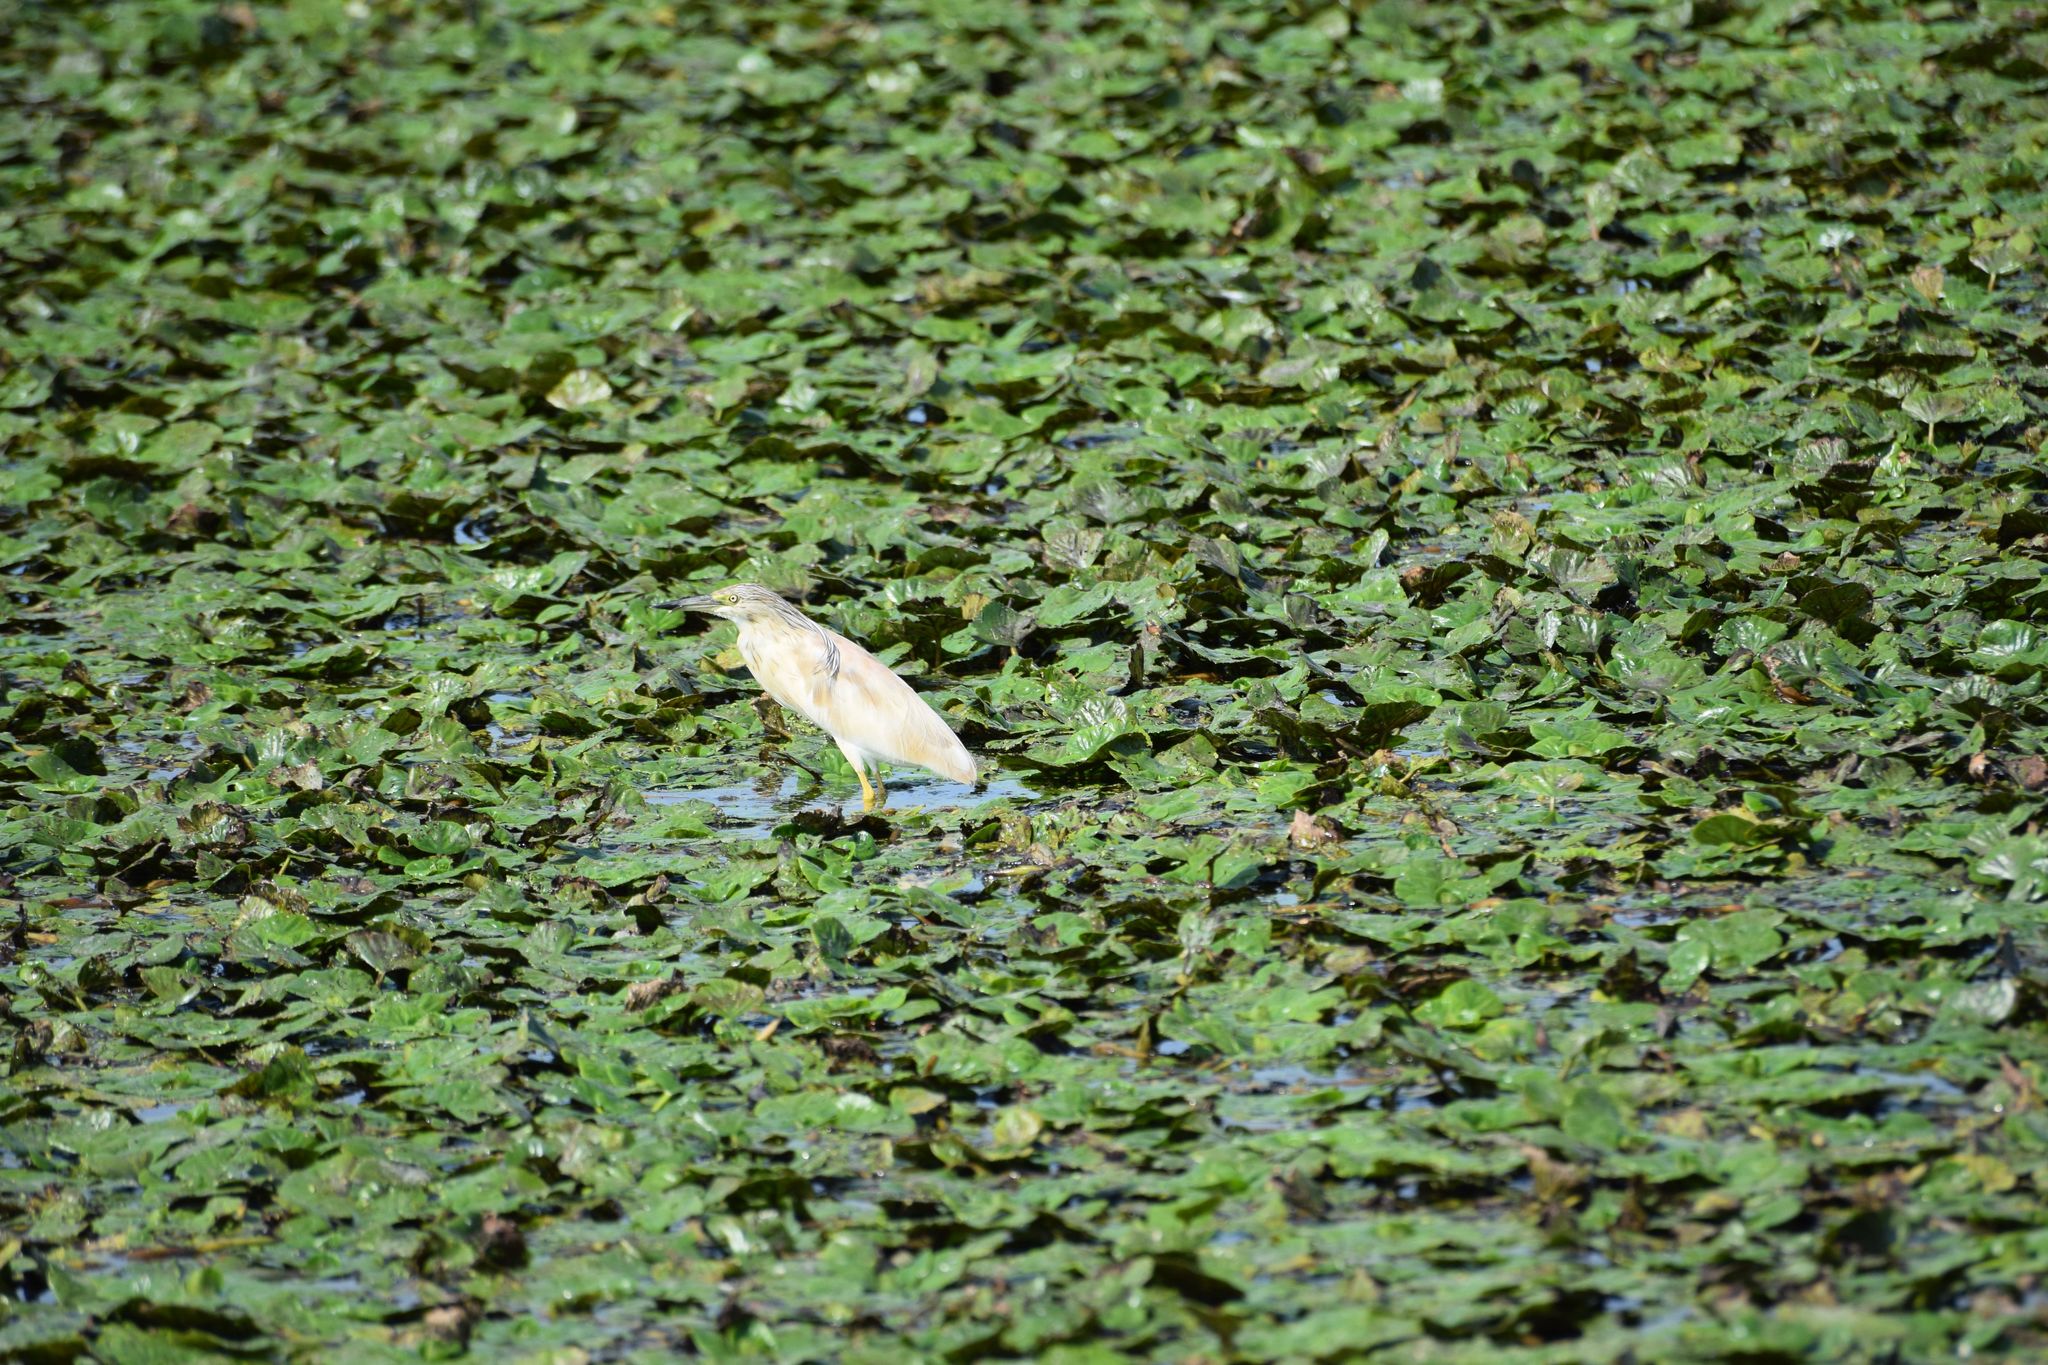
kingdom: Animalia
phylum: Chordata
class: Aves
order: Pelecaniformes
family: Ardeidae
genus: Ardeola
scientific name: Ardeola ralloides
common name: Squacco heron
